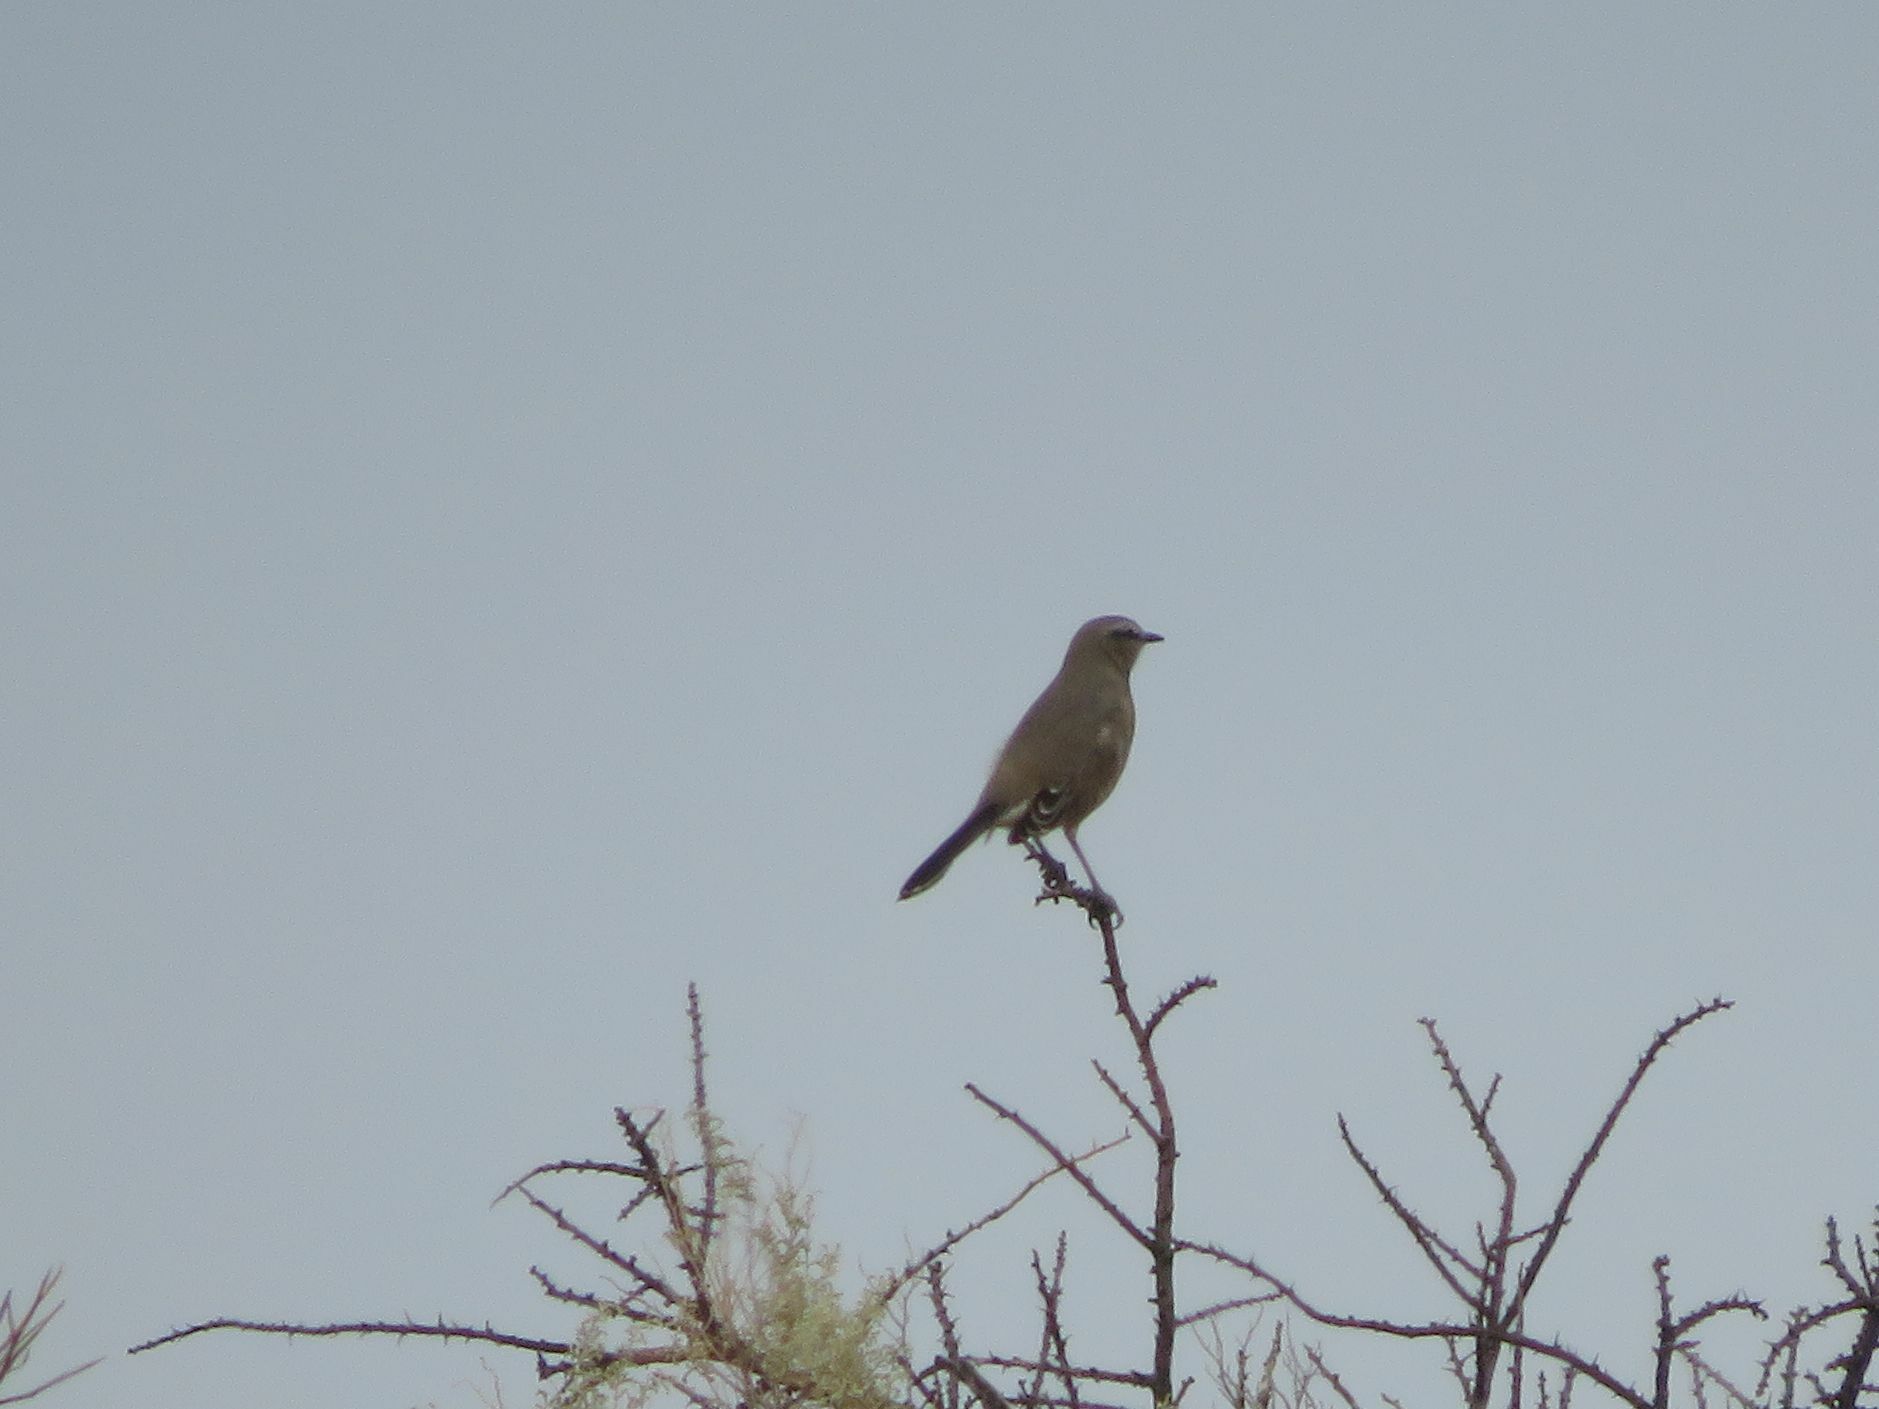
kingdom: Animalia
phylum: Chordata
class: Aves
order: Passeriformes
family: Mimidae
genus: Mimus
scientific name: Mimus patagonicus
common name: Patagonian mockingbird
